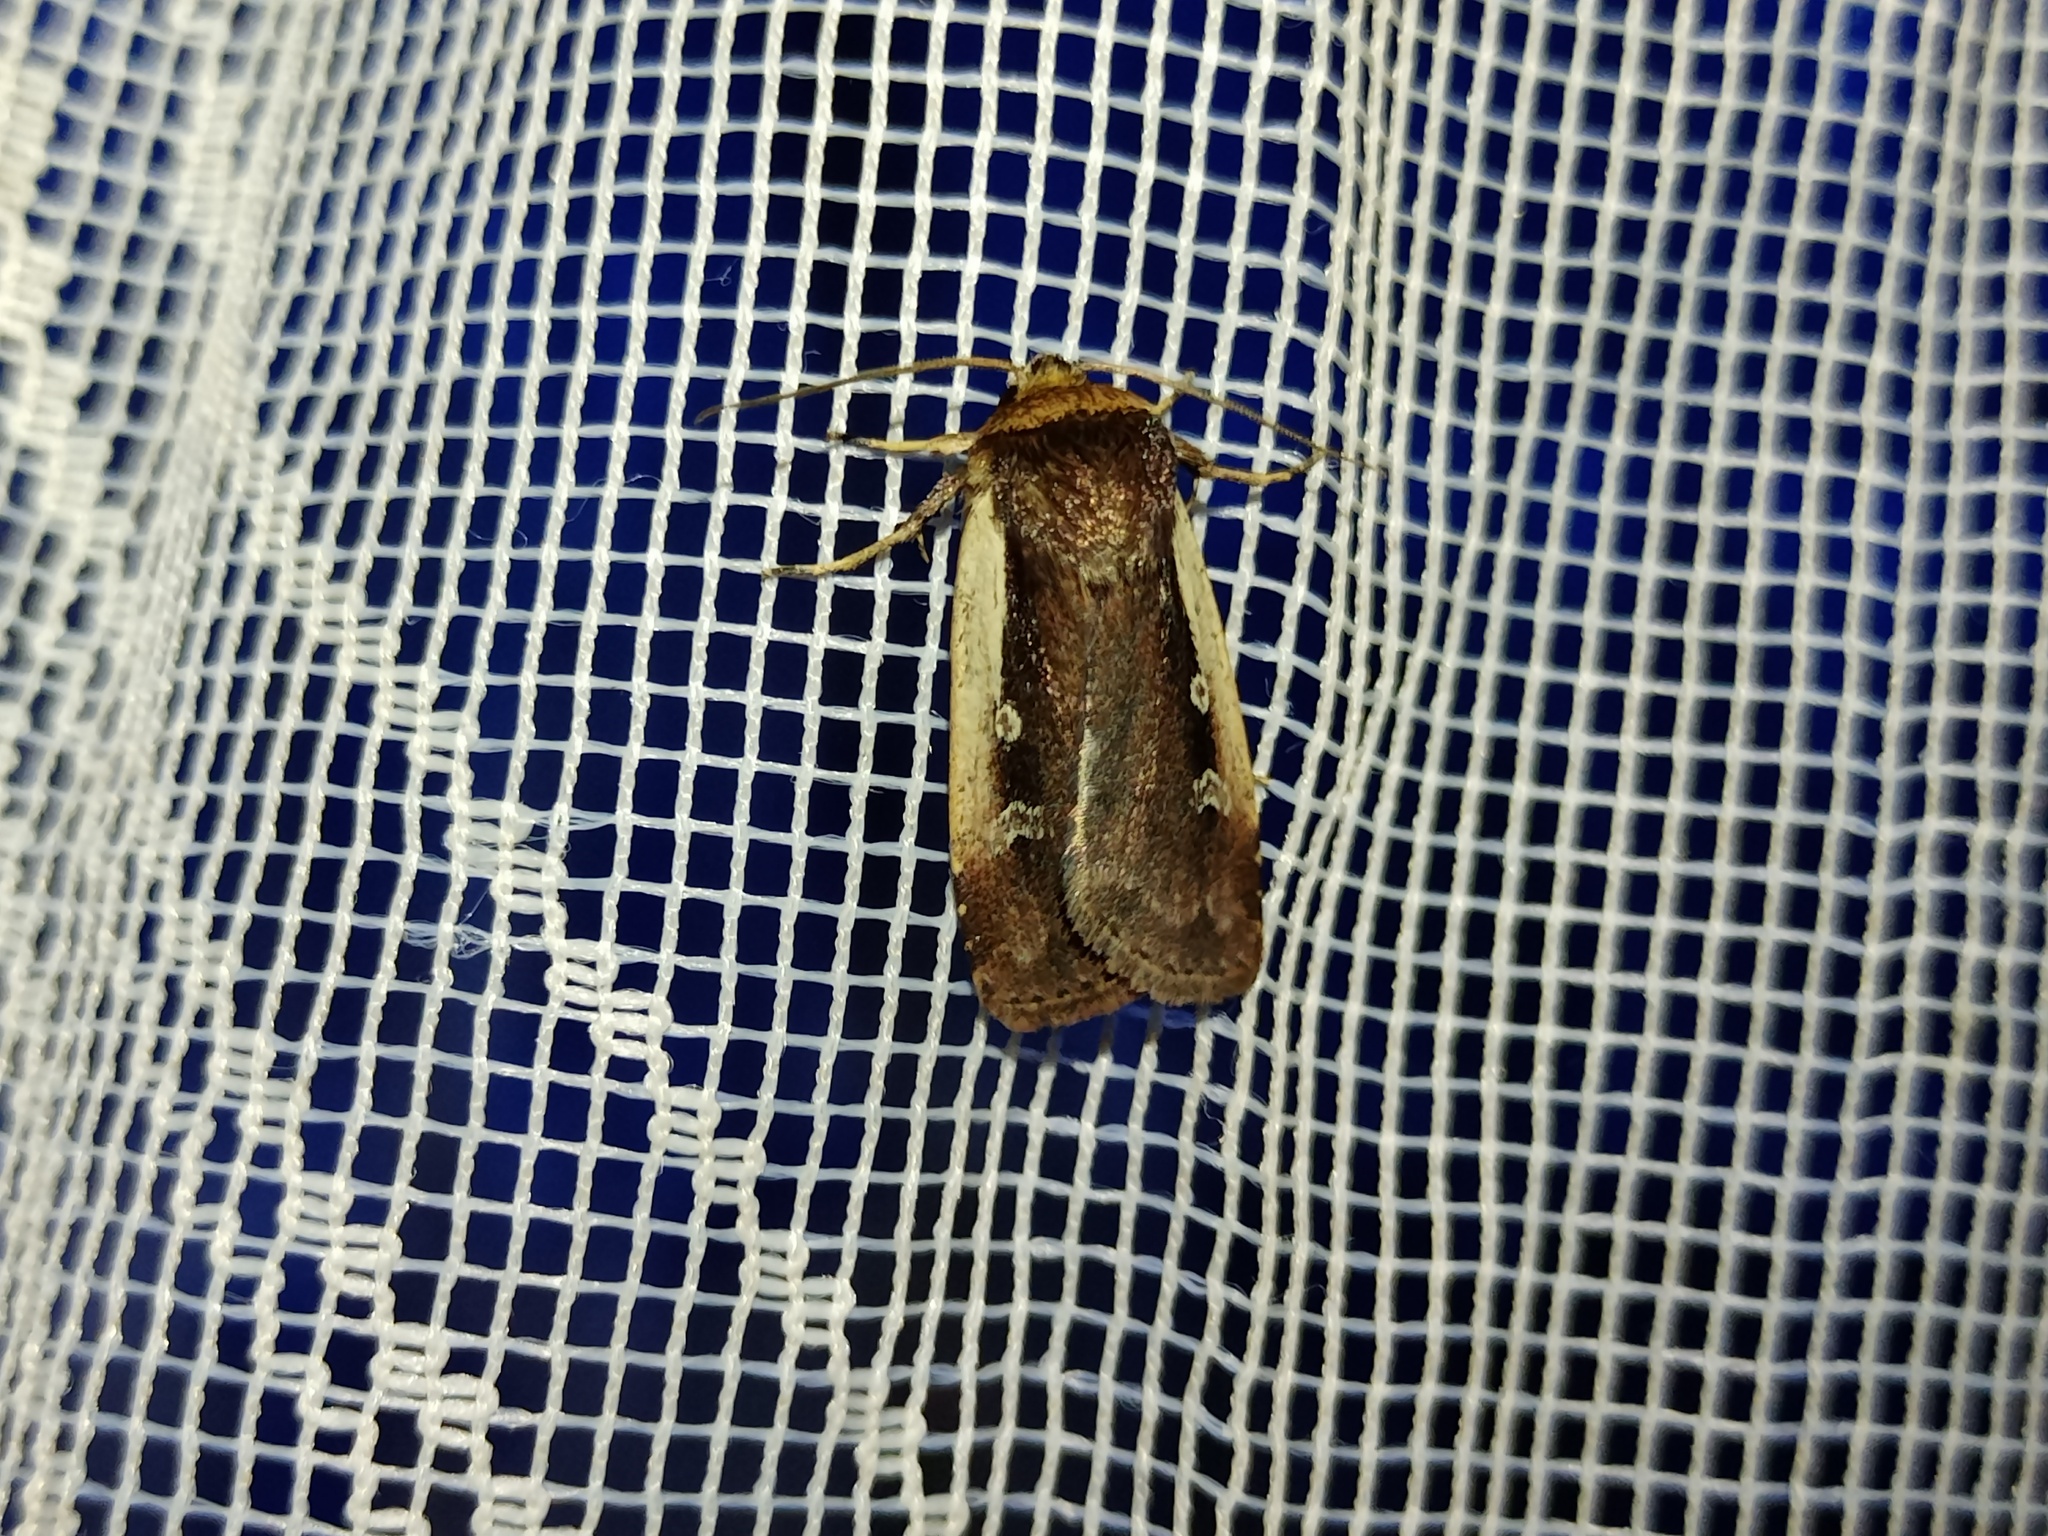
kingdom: Animalia
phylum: Arthropoda
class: Insecta
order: Lepidoptera
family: Noctuidae
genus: Ochropleura
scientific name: Ochropleura plecta
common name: Flame shoulder
